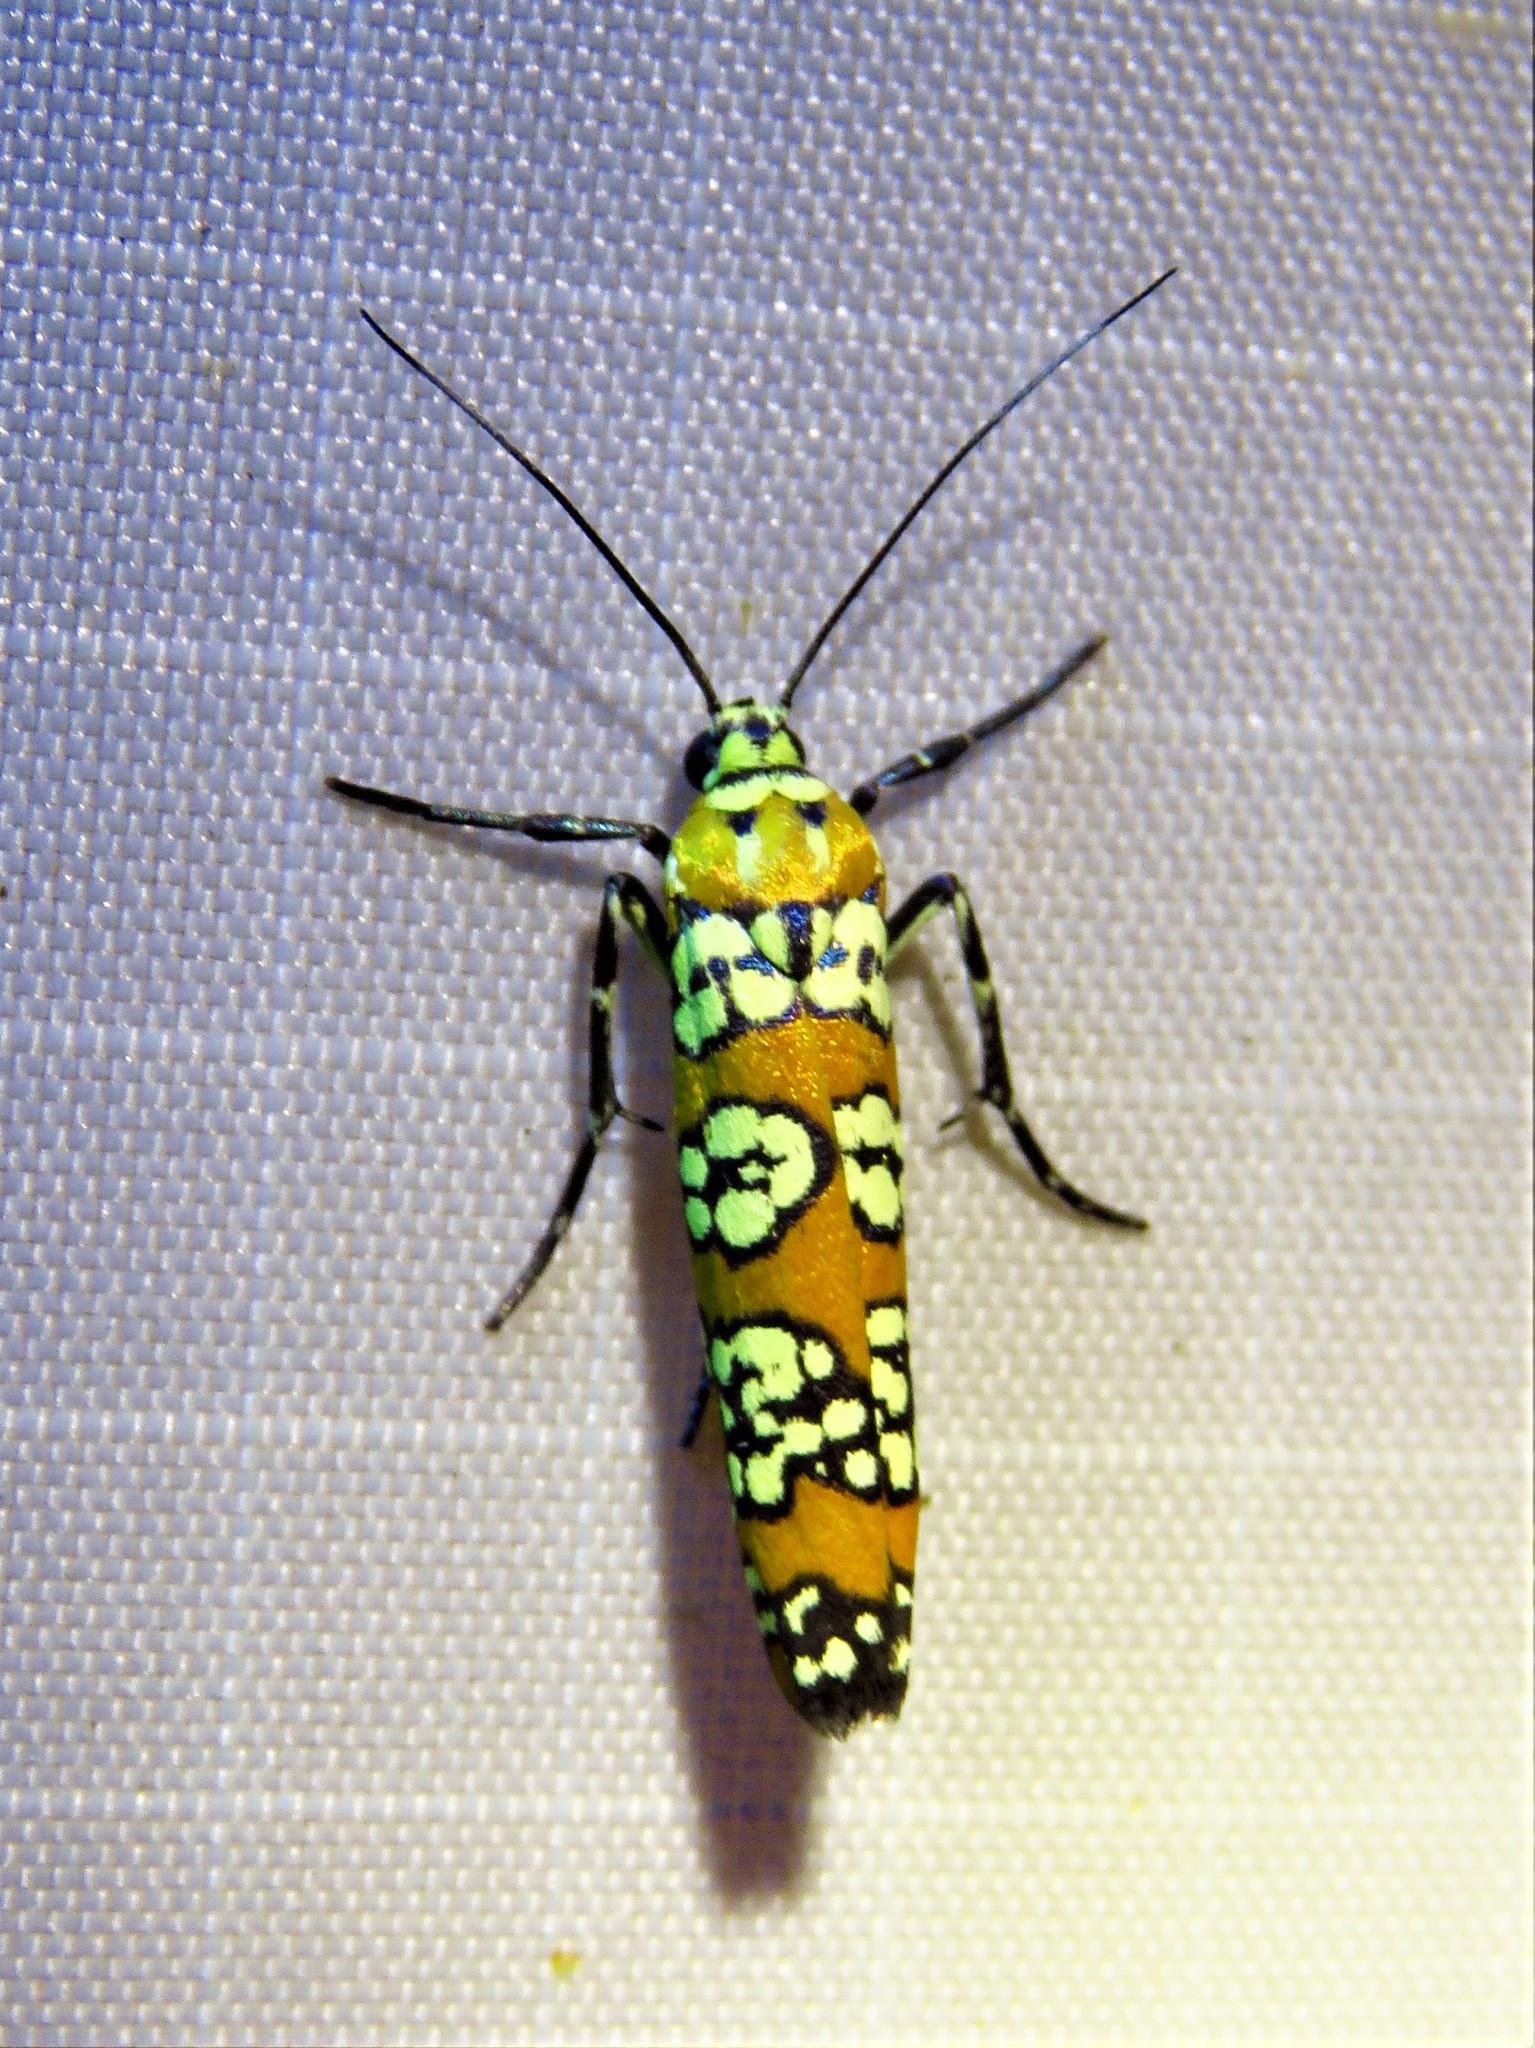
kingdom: Animalia
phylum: Arthropoda
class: Insecta
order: Lepidoptera
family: Attevidae
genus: Atteva
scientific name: Atteva punctella
